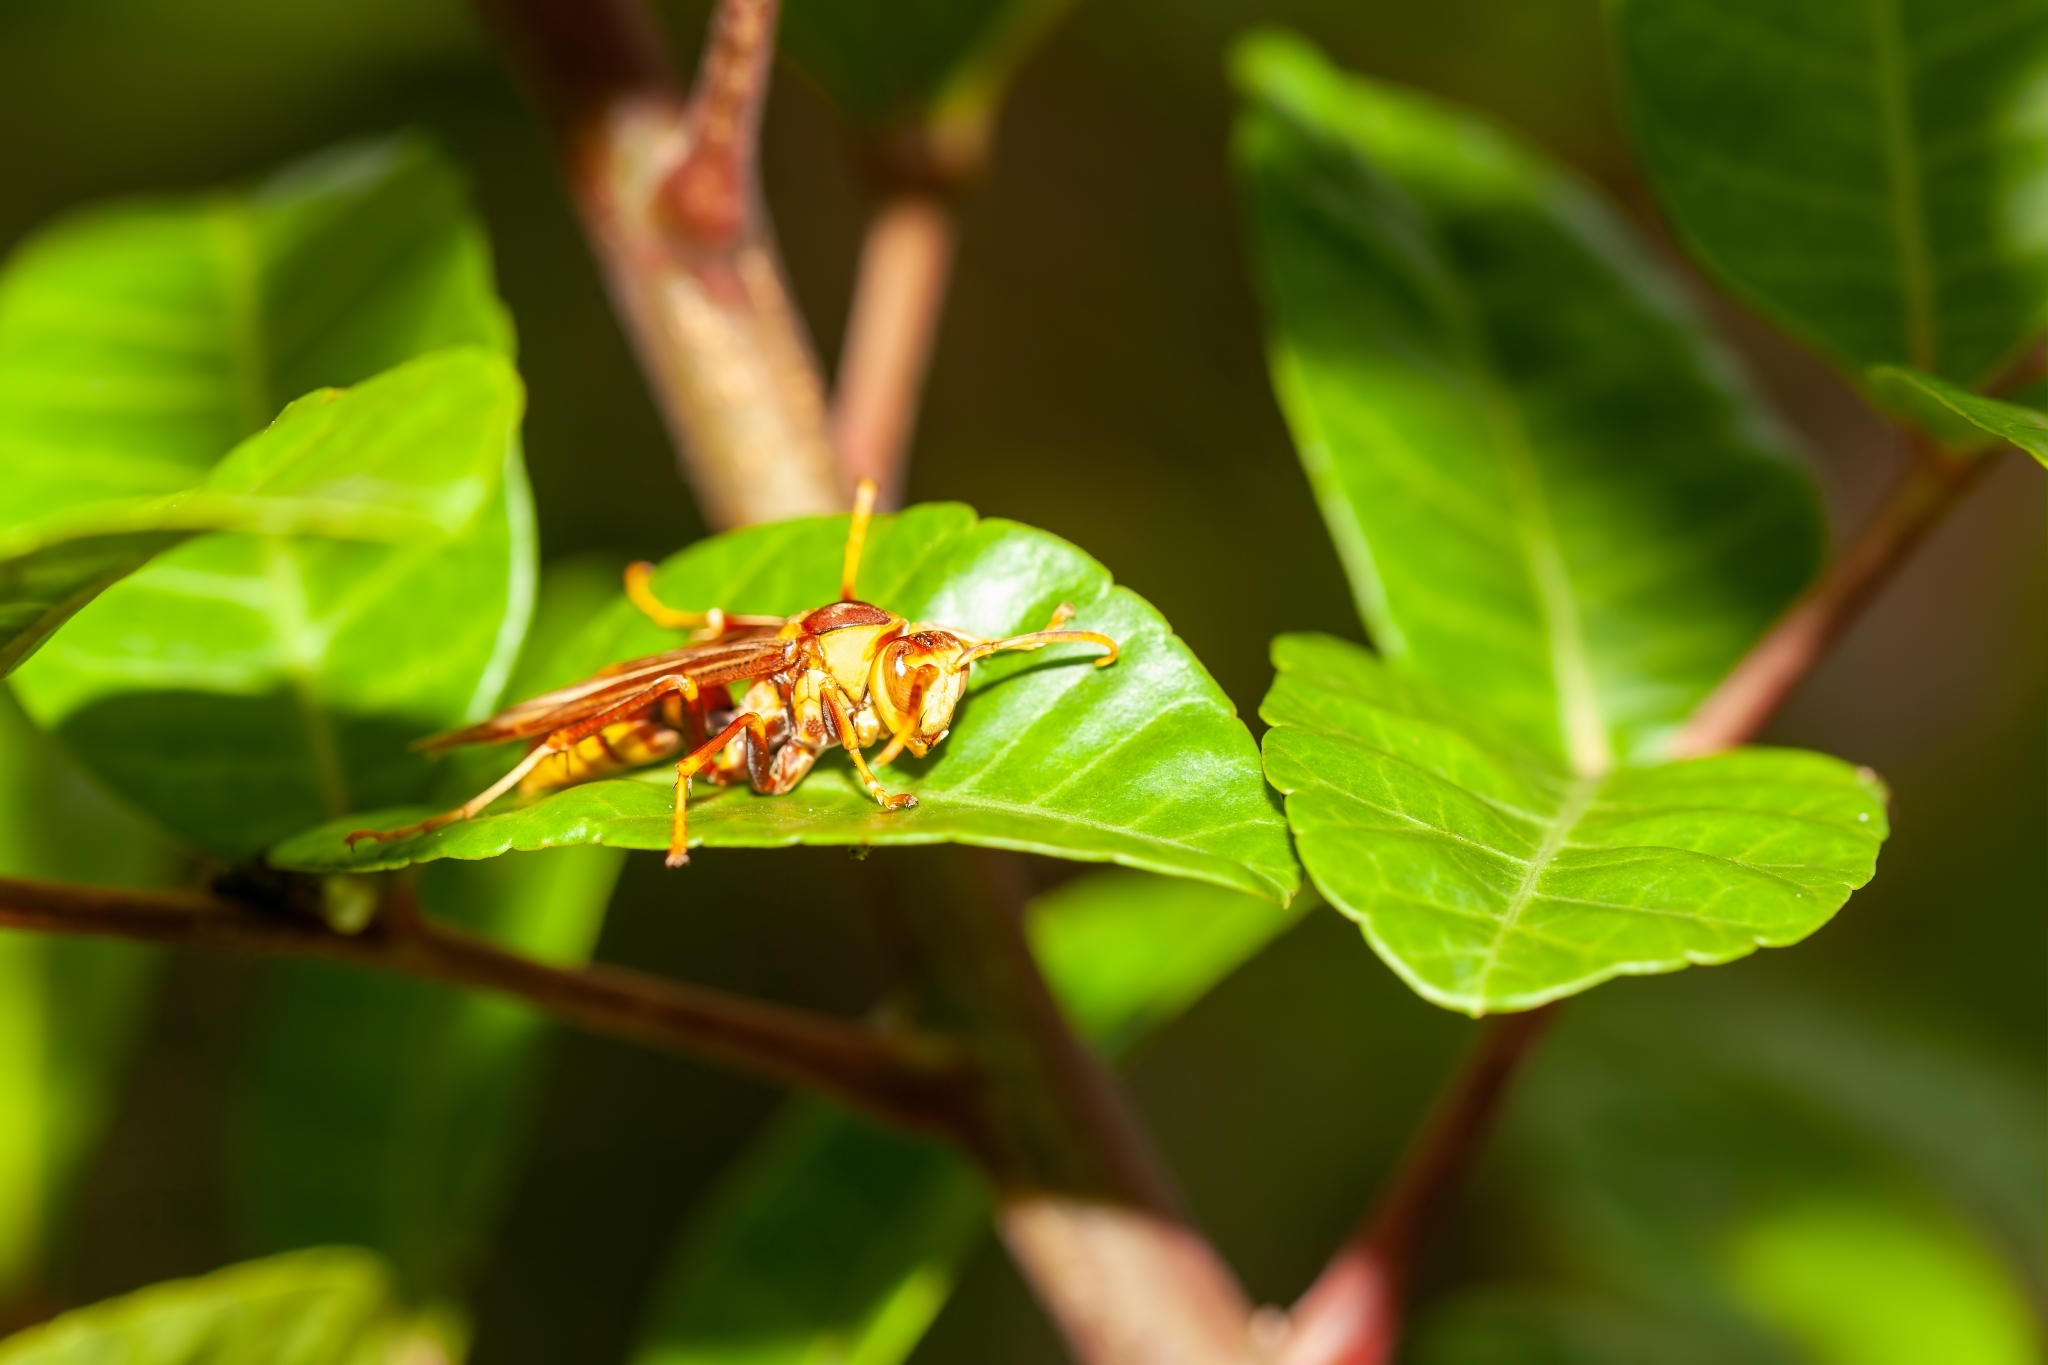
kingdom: Animalia
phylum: Arthropoda
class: Insecta
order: Hymenoptera
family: Eumenidae
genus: Polistes
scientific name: Polistes major
